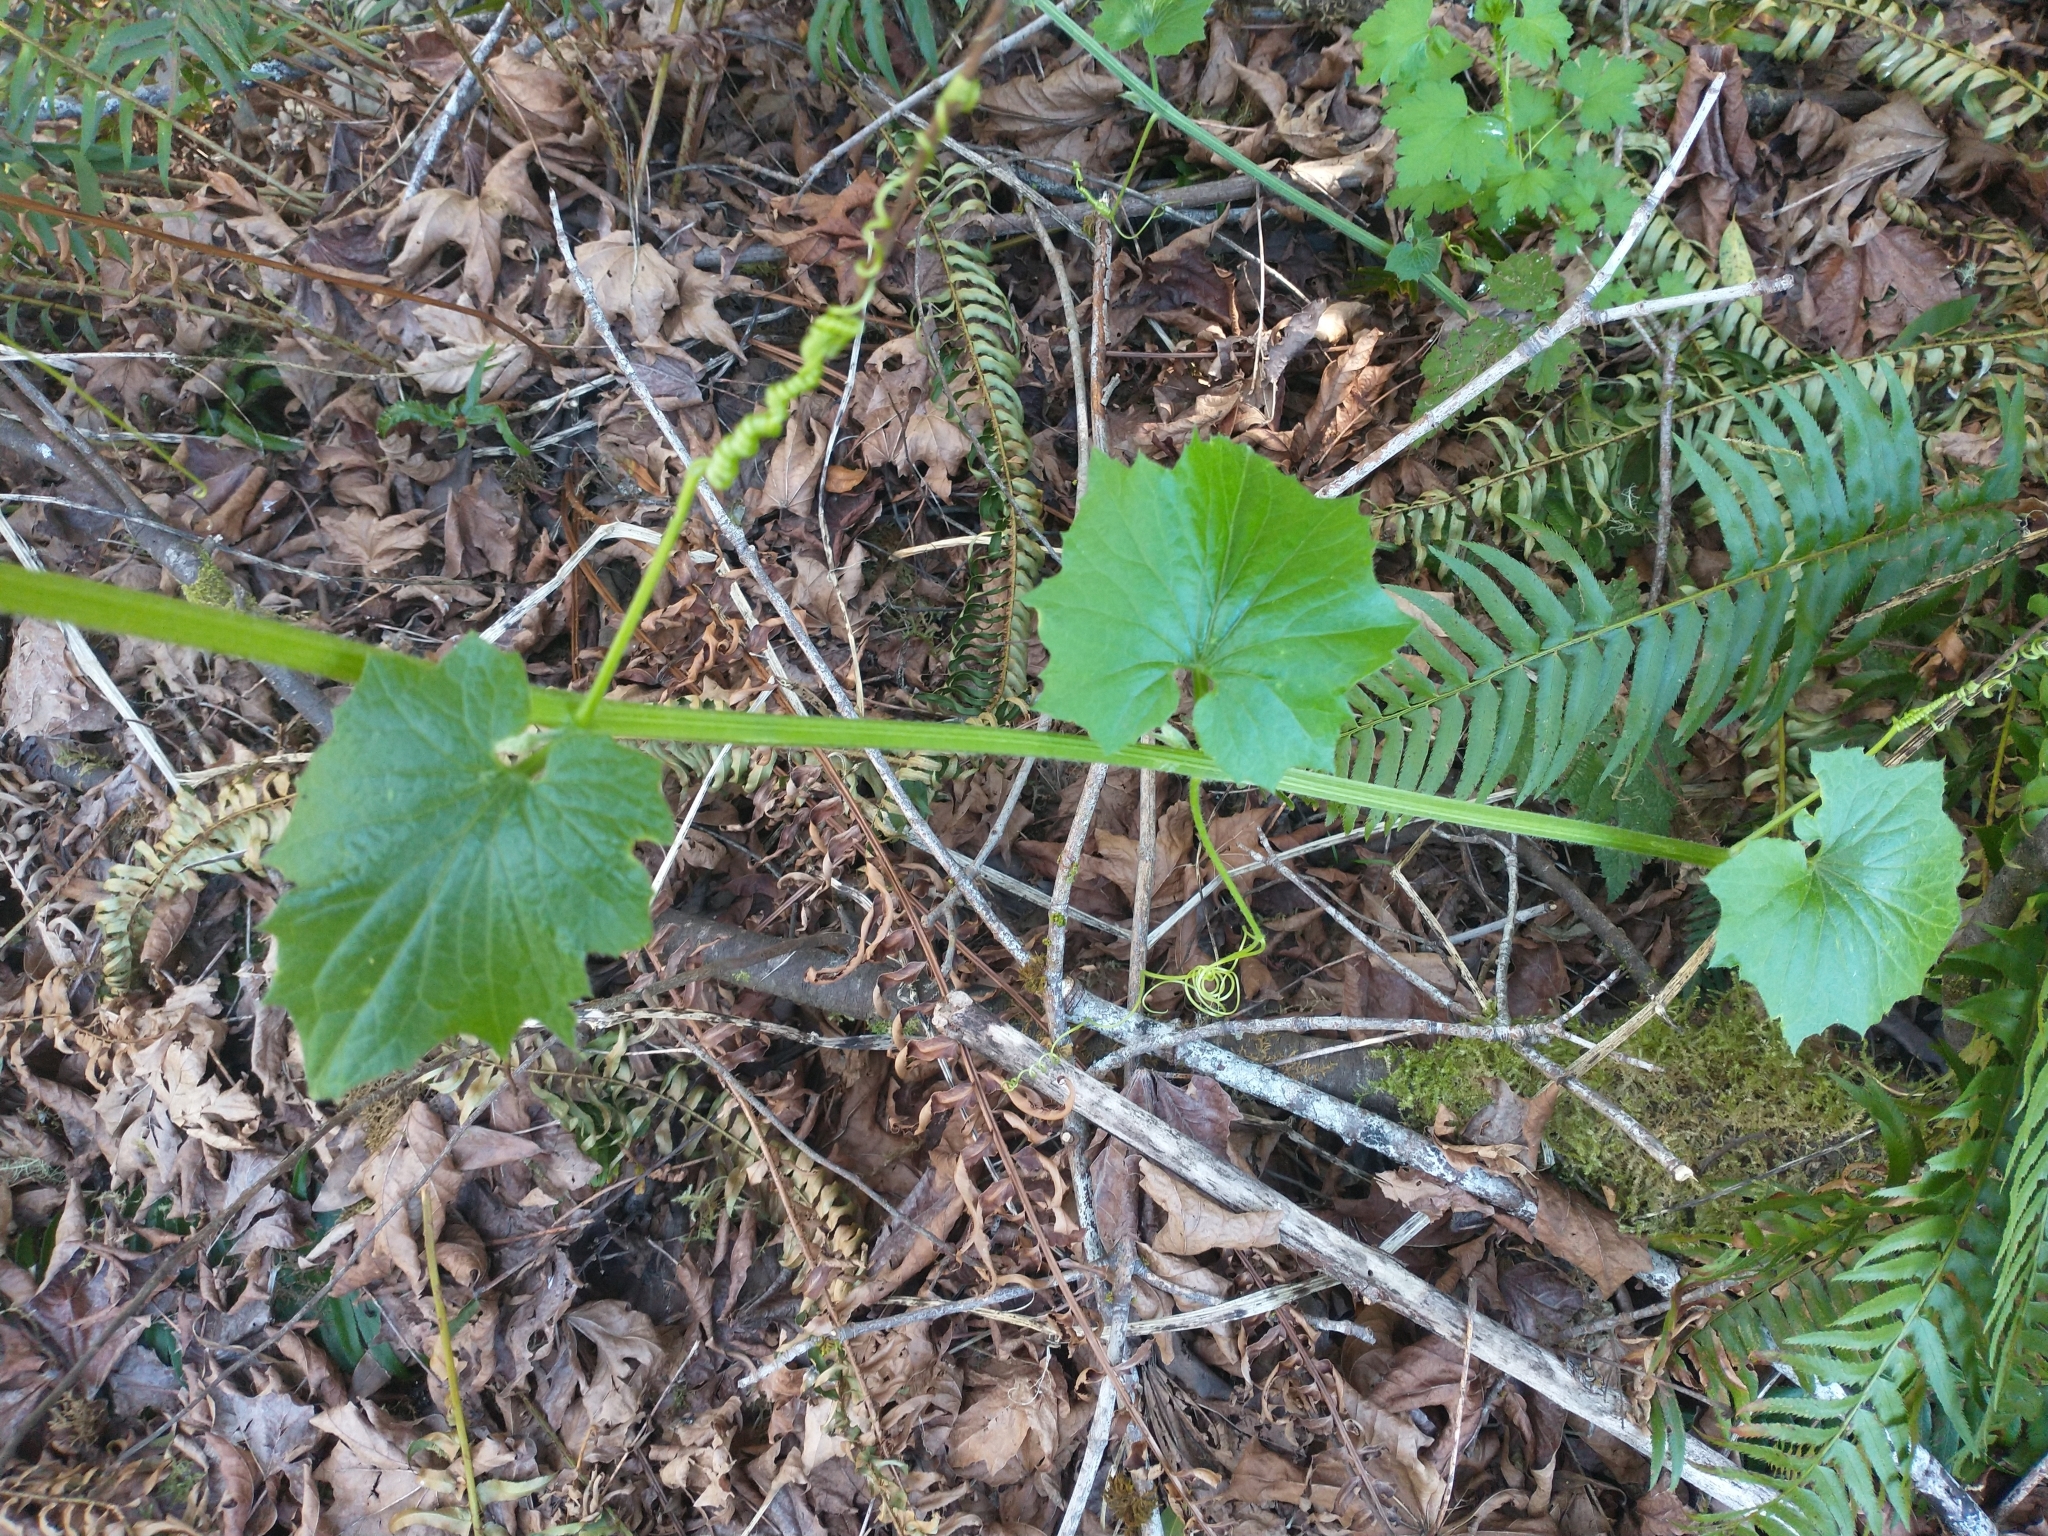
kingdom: Plantae
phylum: Tracheophyta
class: Magnoliopsida
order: Cucurbitales
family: Cucurbitaceae
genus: Marah
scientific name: Marah oregana
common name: Coastal manroot
